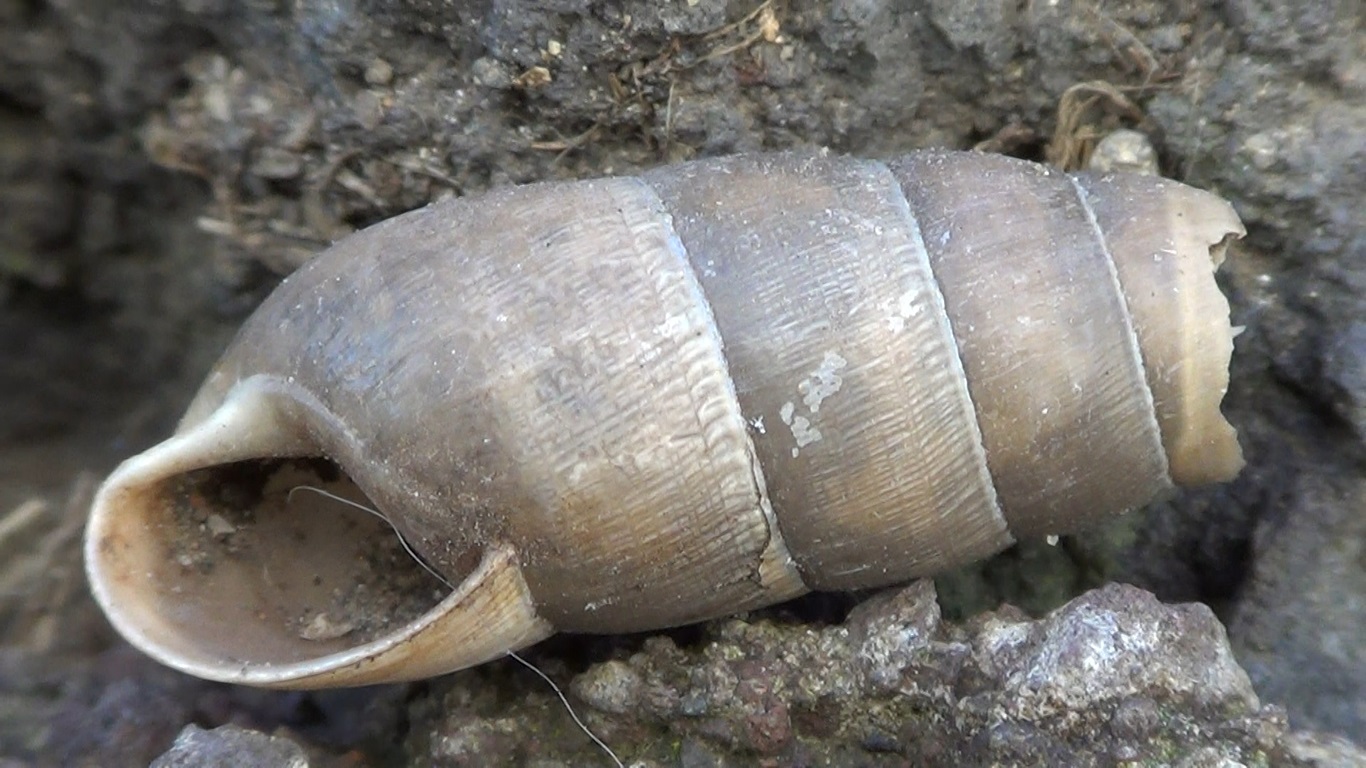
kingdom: Animalia
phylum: Mollusca
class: Gastropoda
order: Stylommatophora
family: Achatinidae
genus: Rumina
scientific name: Rumina decollata
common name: Decollate snail
